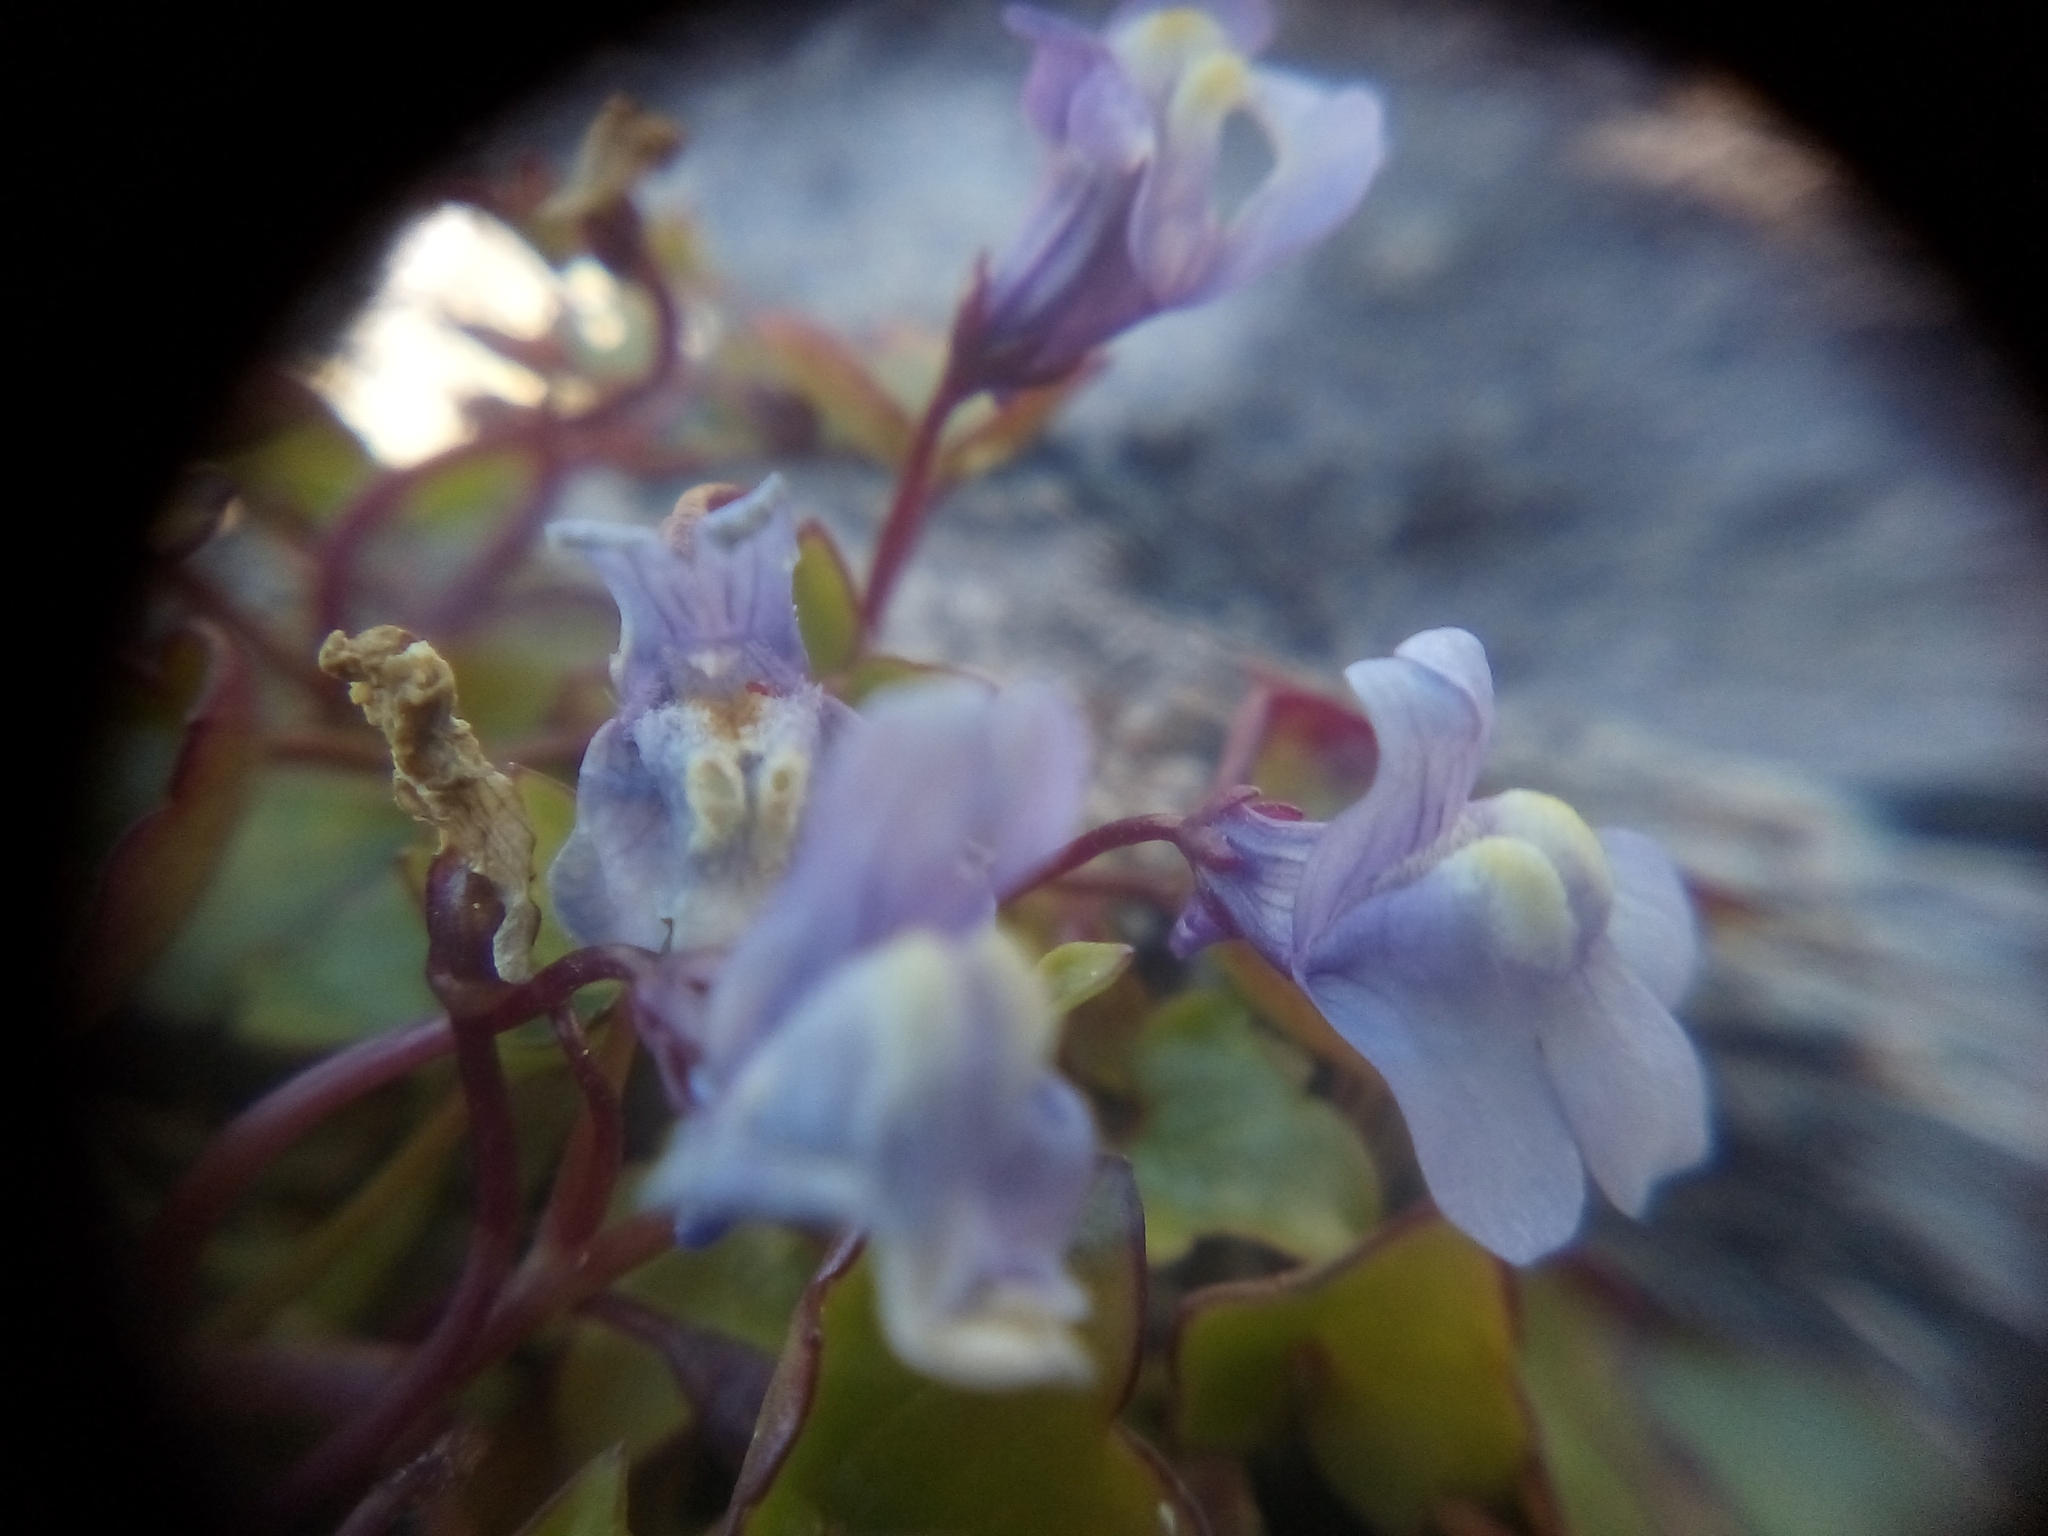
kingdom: Plantae
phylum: Tracheophyta
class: Magnoliopsida
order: Lamiales
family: Plantaginaceae
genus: Cymbalaria
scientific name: Cymbalaria muralis
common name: Ivy-leaved toadflax
